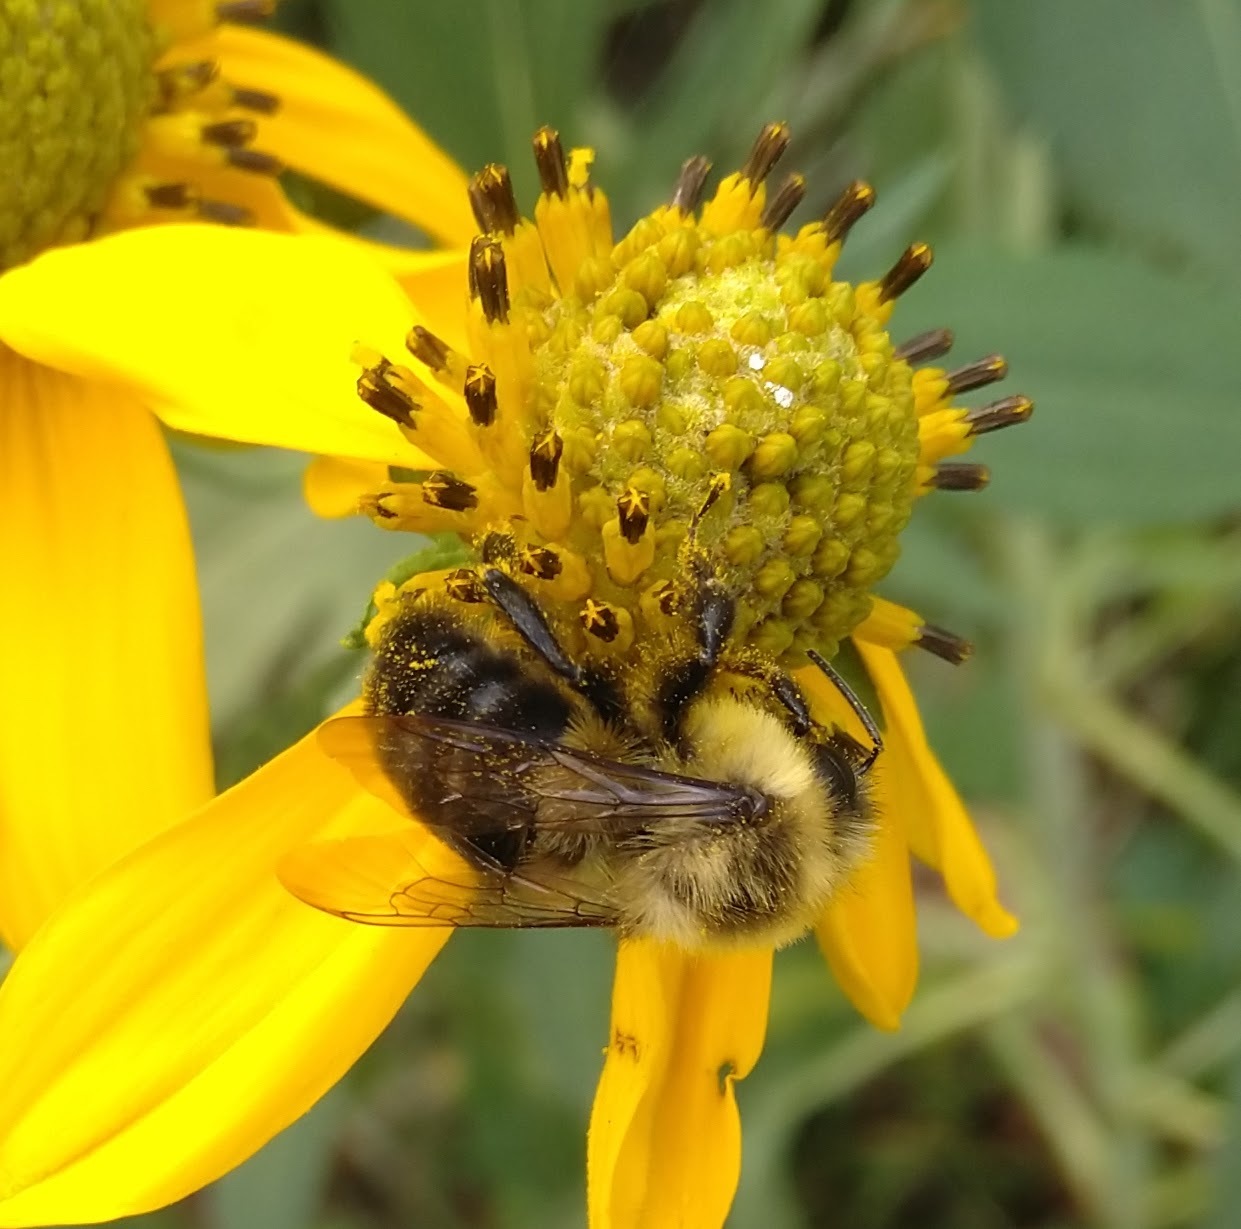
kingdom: Animalia
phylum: Arthropoda
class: Insecta
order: Hymenoptera
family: Apidae
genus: Bombus
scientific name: Bombus impatiens
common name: Common eastern bumble bee
